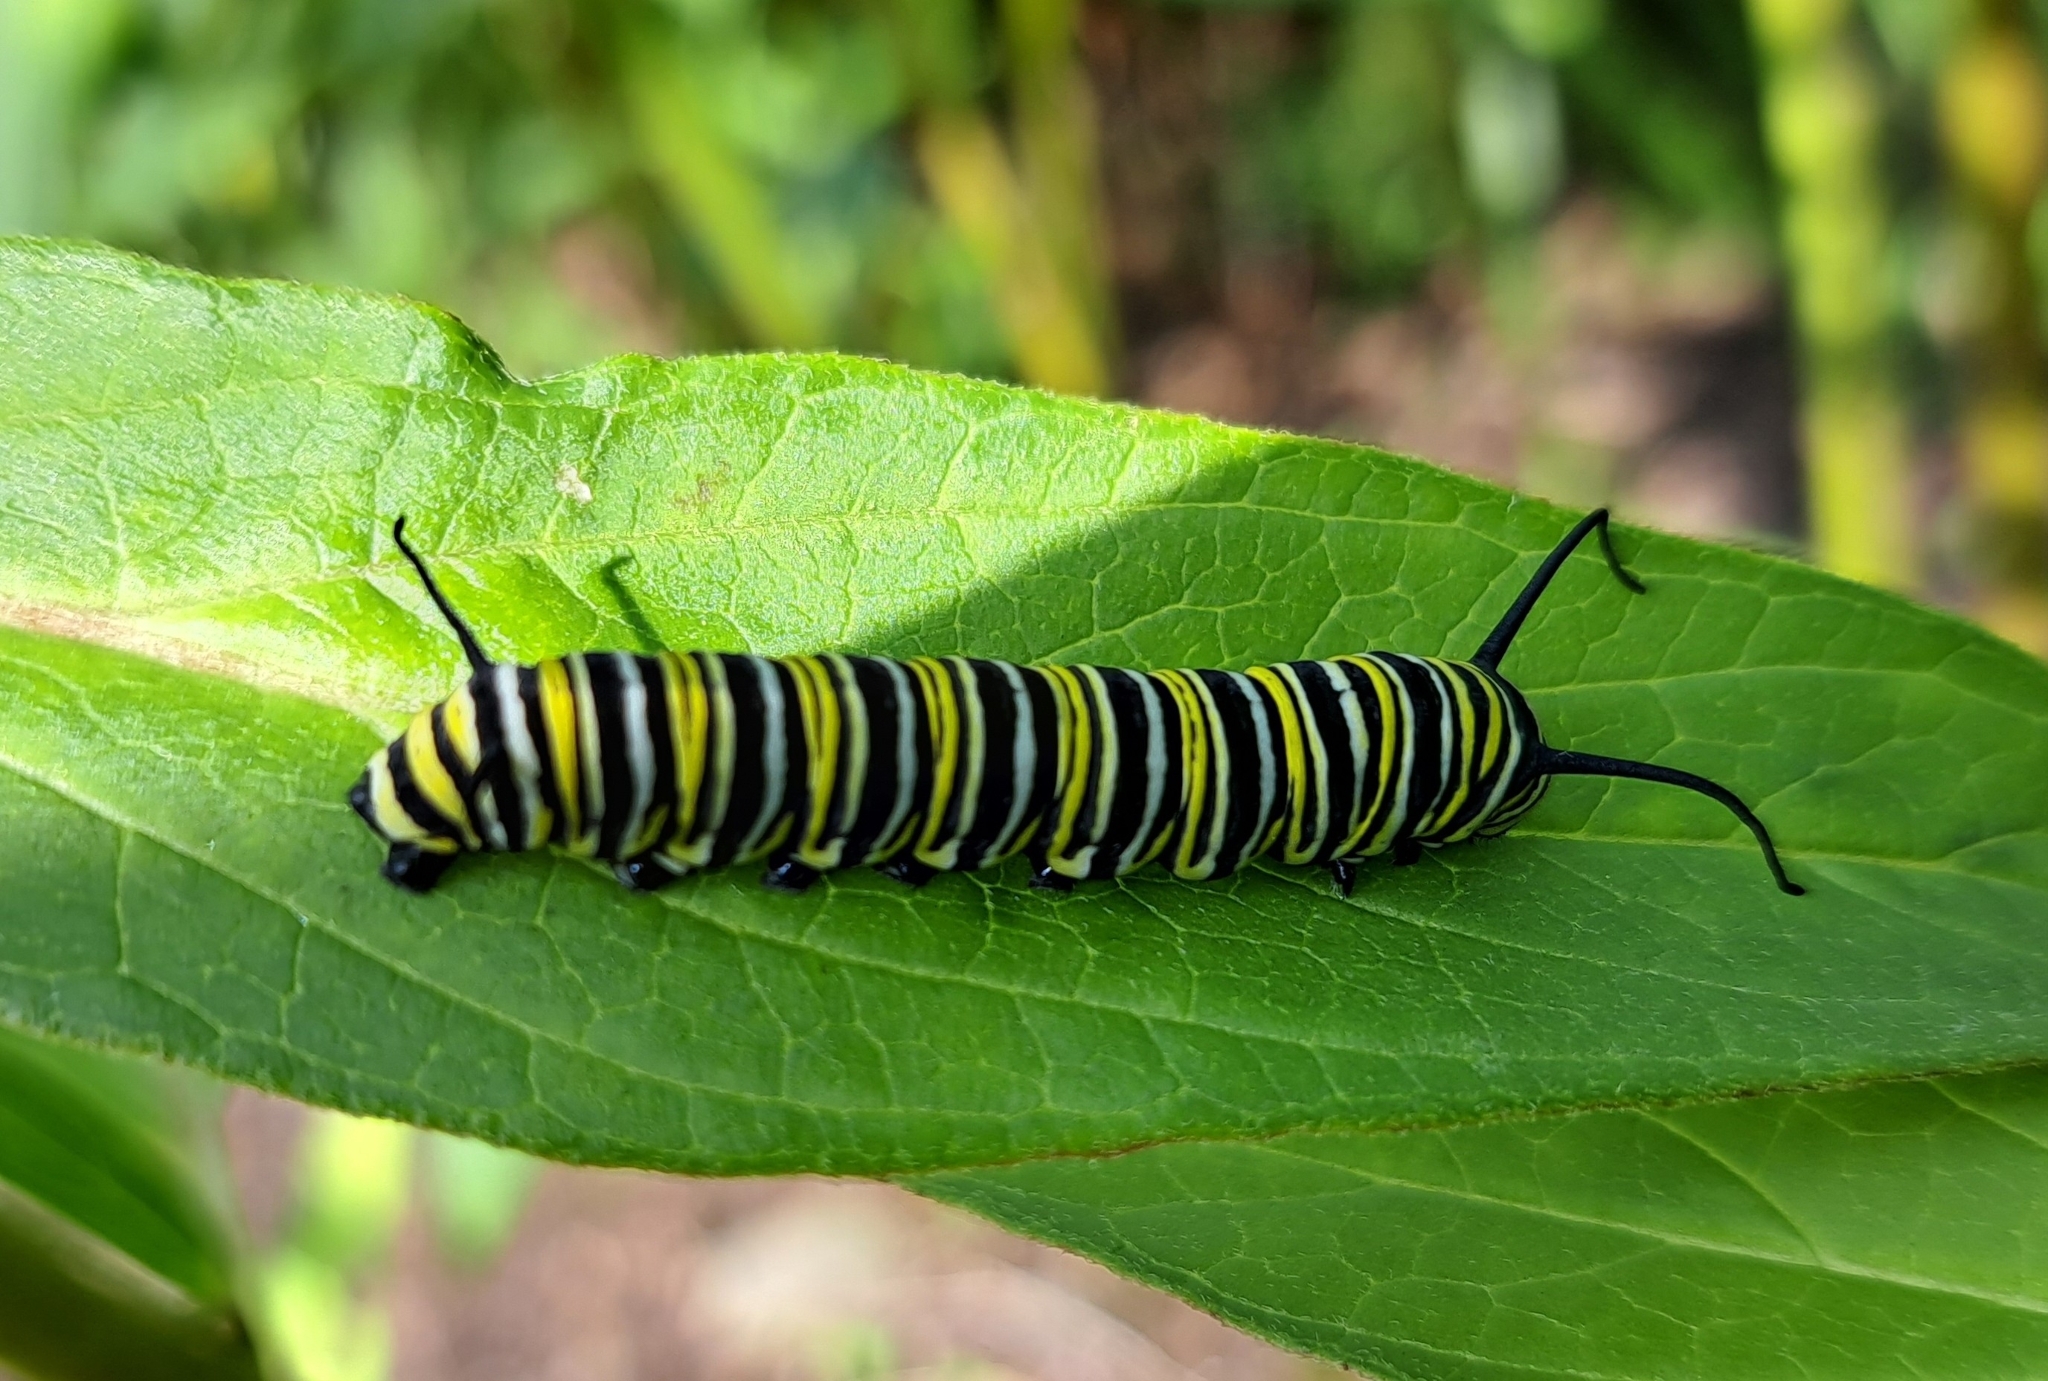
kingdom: Animalia
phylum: Arthropoda
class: Insecta
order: Lepidoptera
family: Nymphalidae
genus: Danaus
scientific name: Danaus plexippus
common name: Monarch
